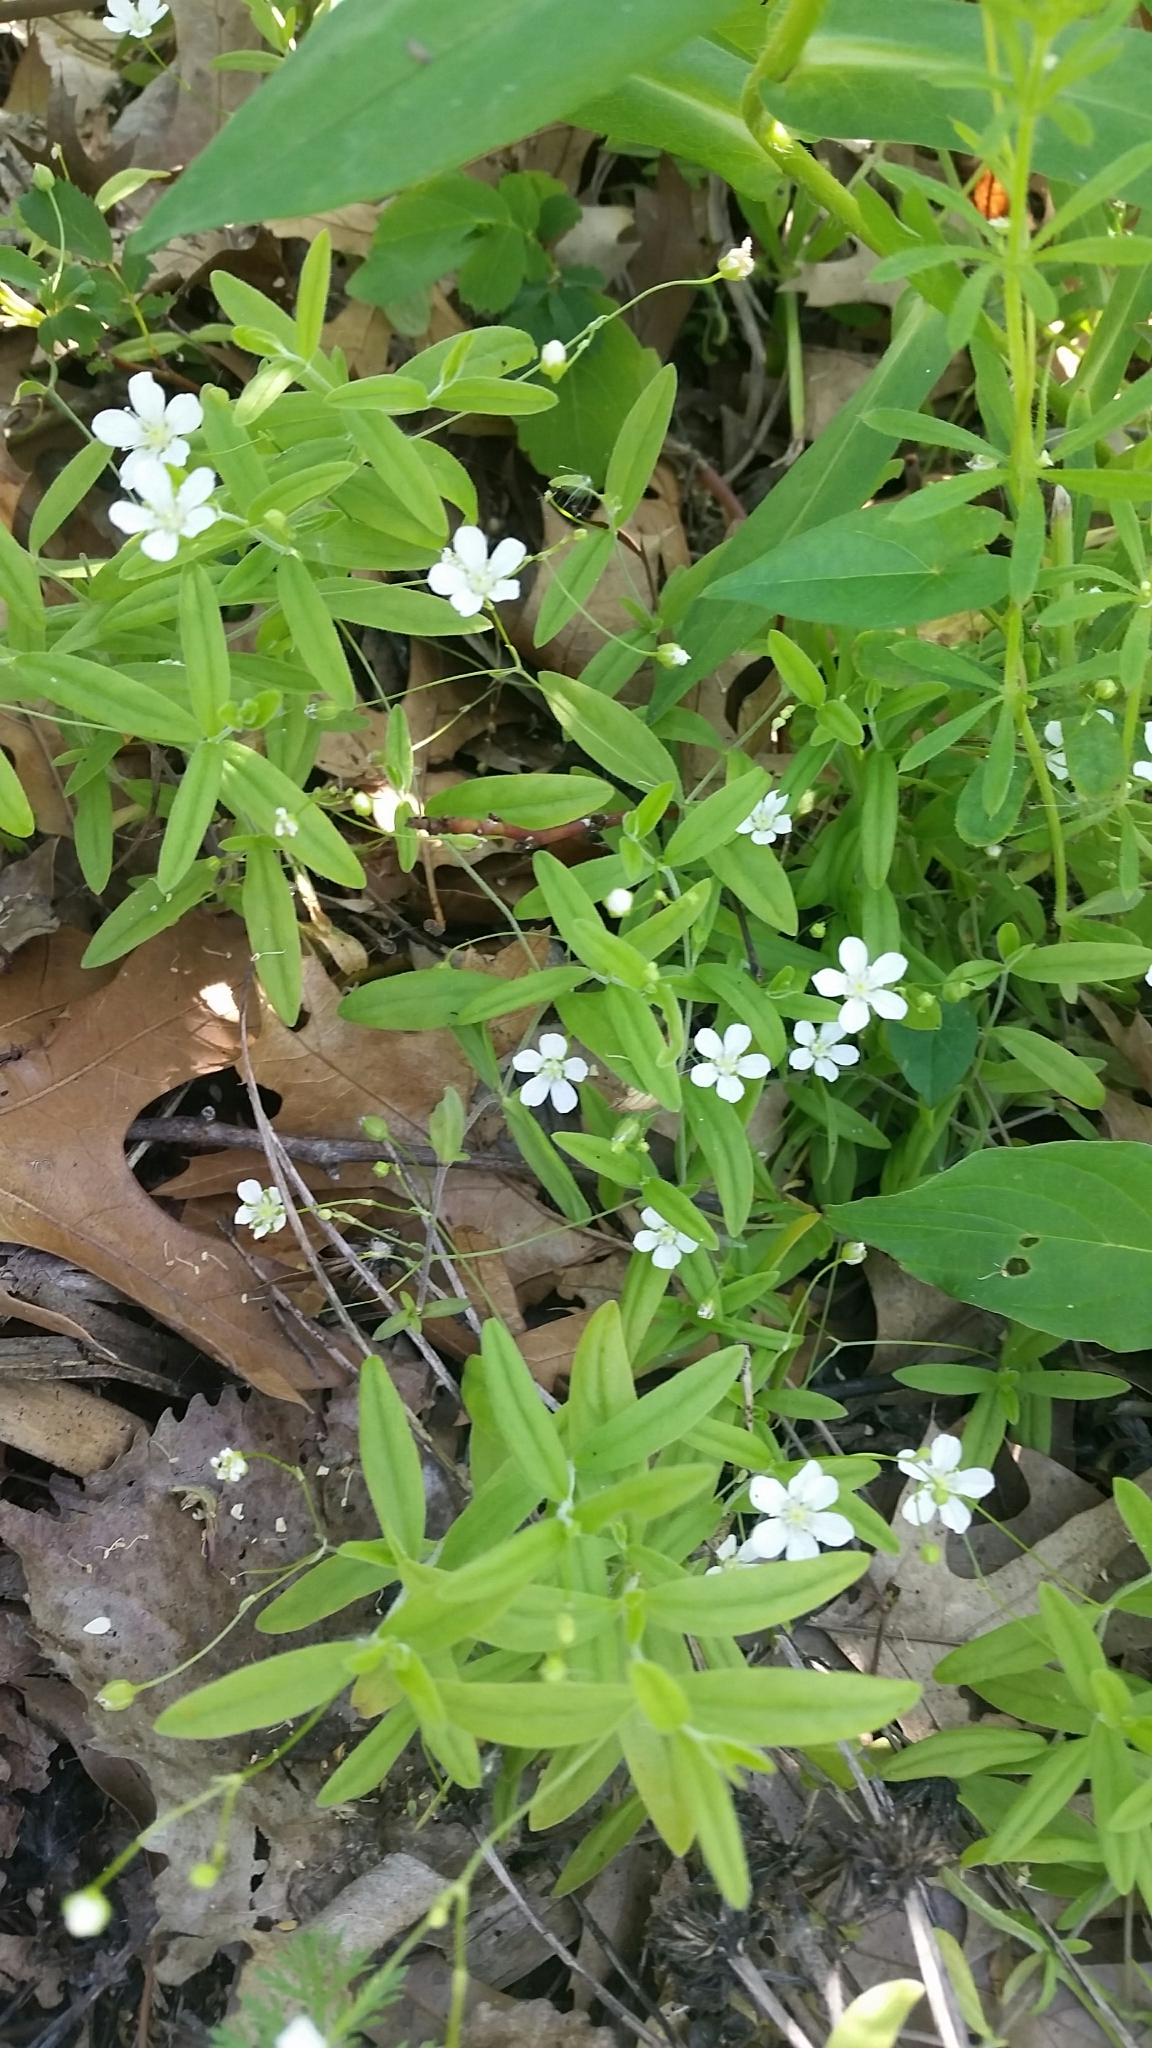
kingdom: Plantae
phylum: Tracheophyta
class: Magnoliopsida
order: Caryophyllales
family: Caryophyllaceae
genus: Moehringia
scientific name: Moehringia lateriflora
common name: Blunt-leaved sandwort
